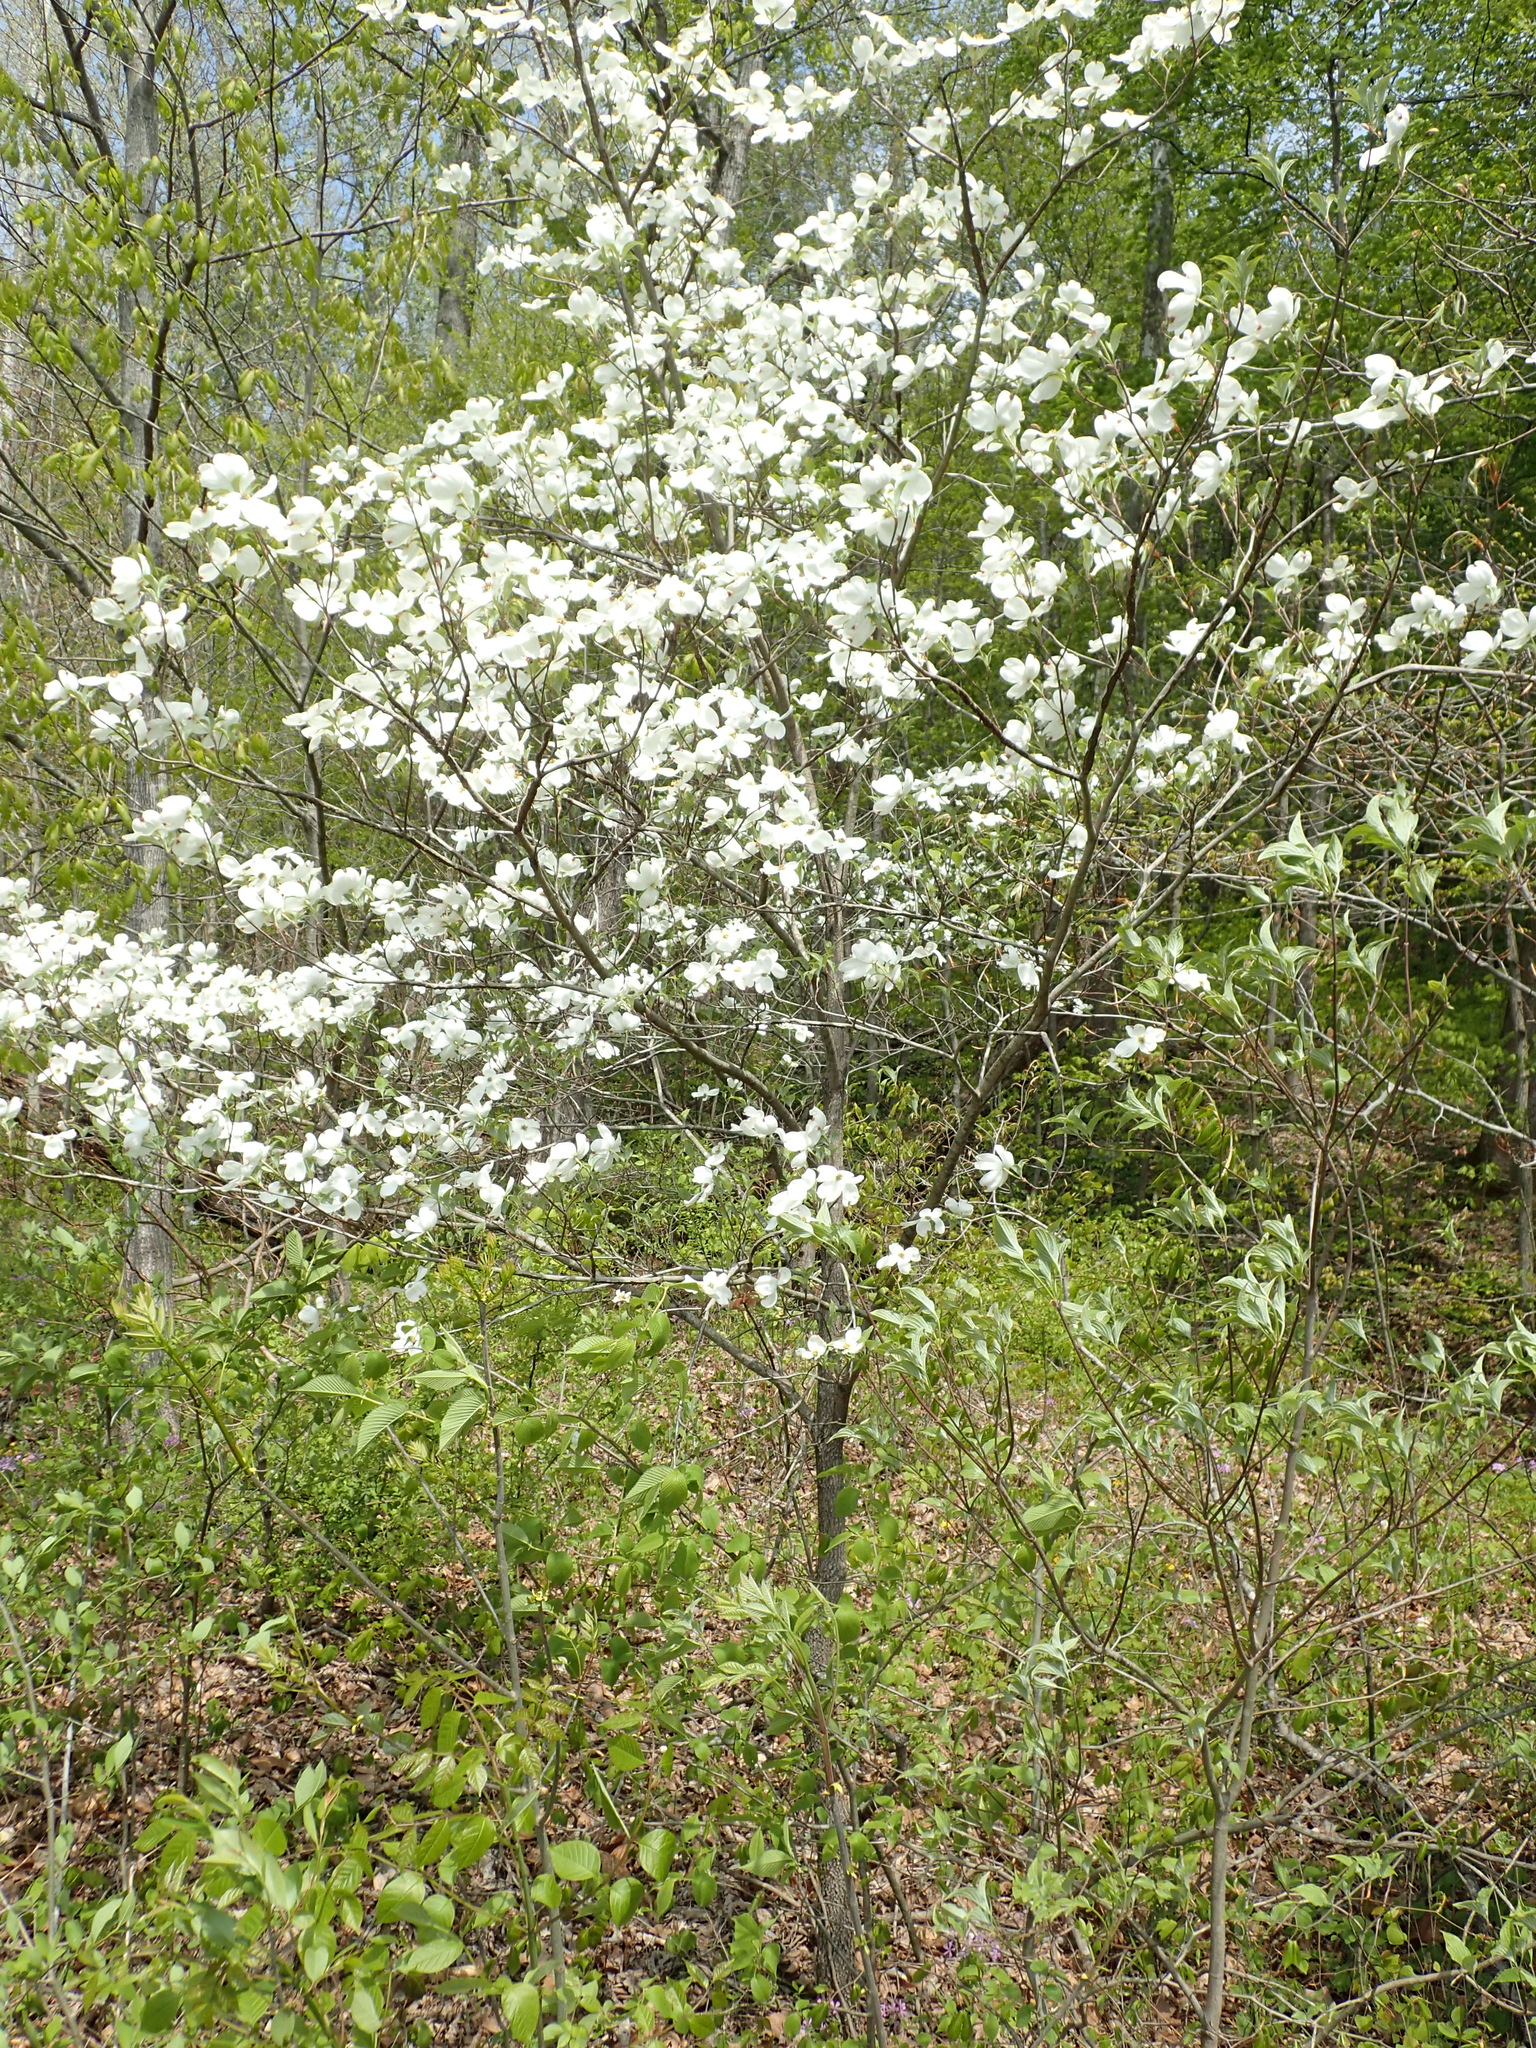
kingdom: Plantae
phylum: Tracheophyta
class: Magnoliopsida
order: Cornales
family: Cornaceae
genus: Cornus
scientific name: Cornus florida
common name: Flowering dogwood
